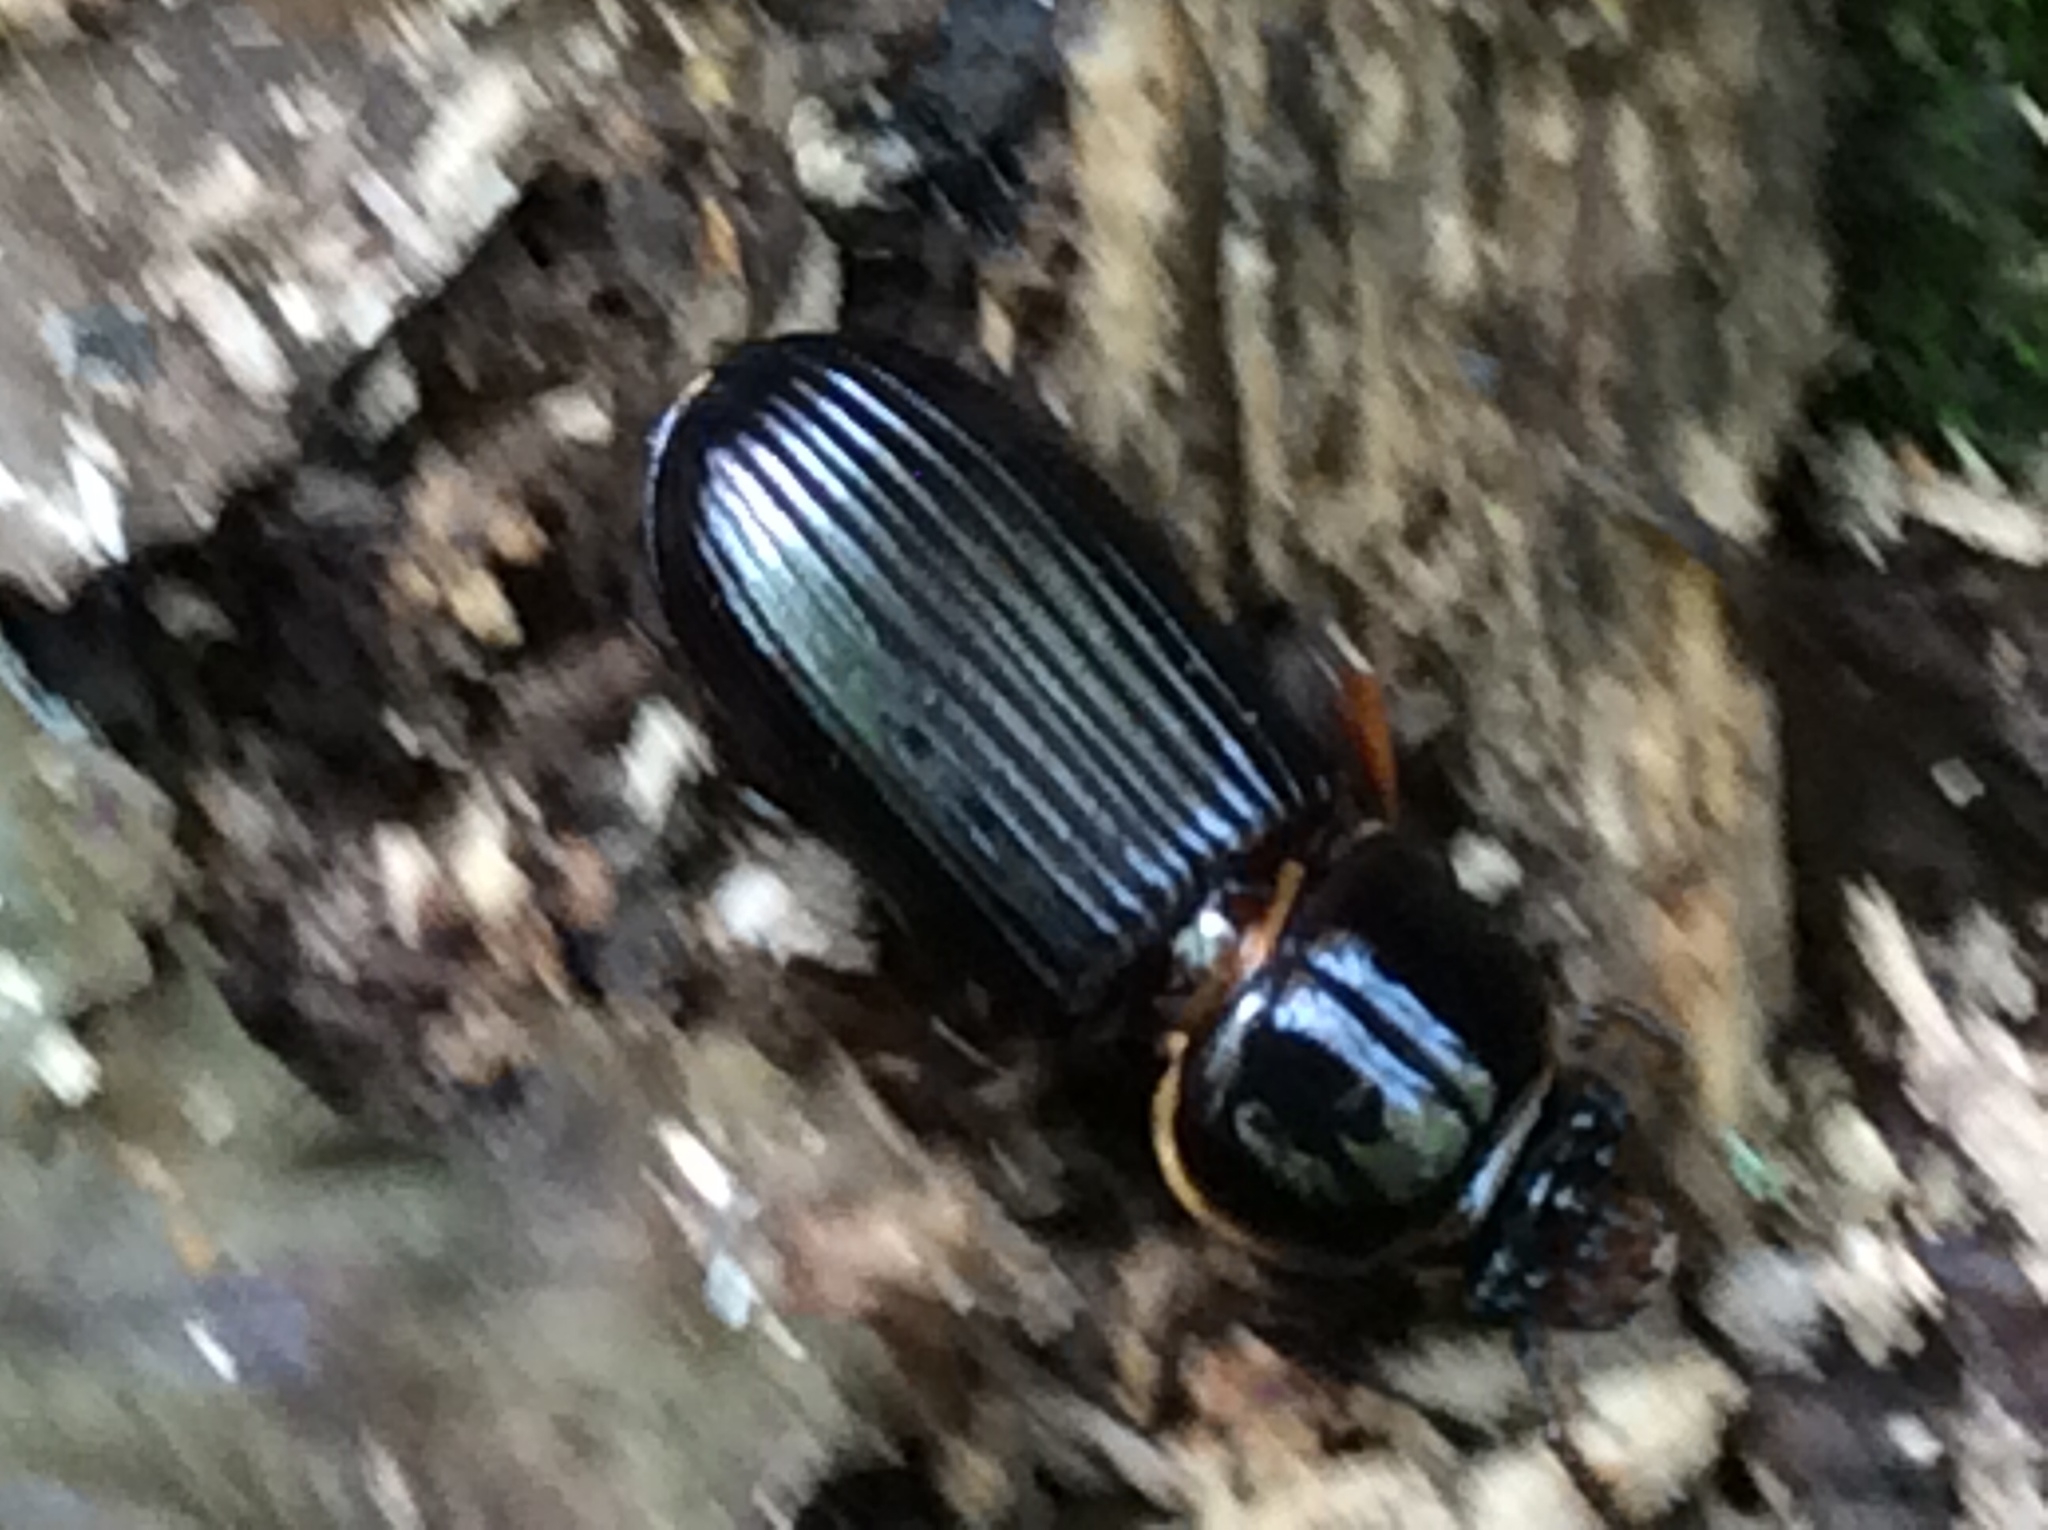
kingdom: Animalia
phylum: Arthropoda
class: Insecta
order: Coleoptera
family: Passalidae
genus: Odontotaenius
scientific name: Odontotaenius disjunctus
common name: Patent leather beetle
